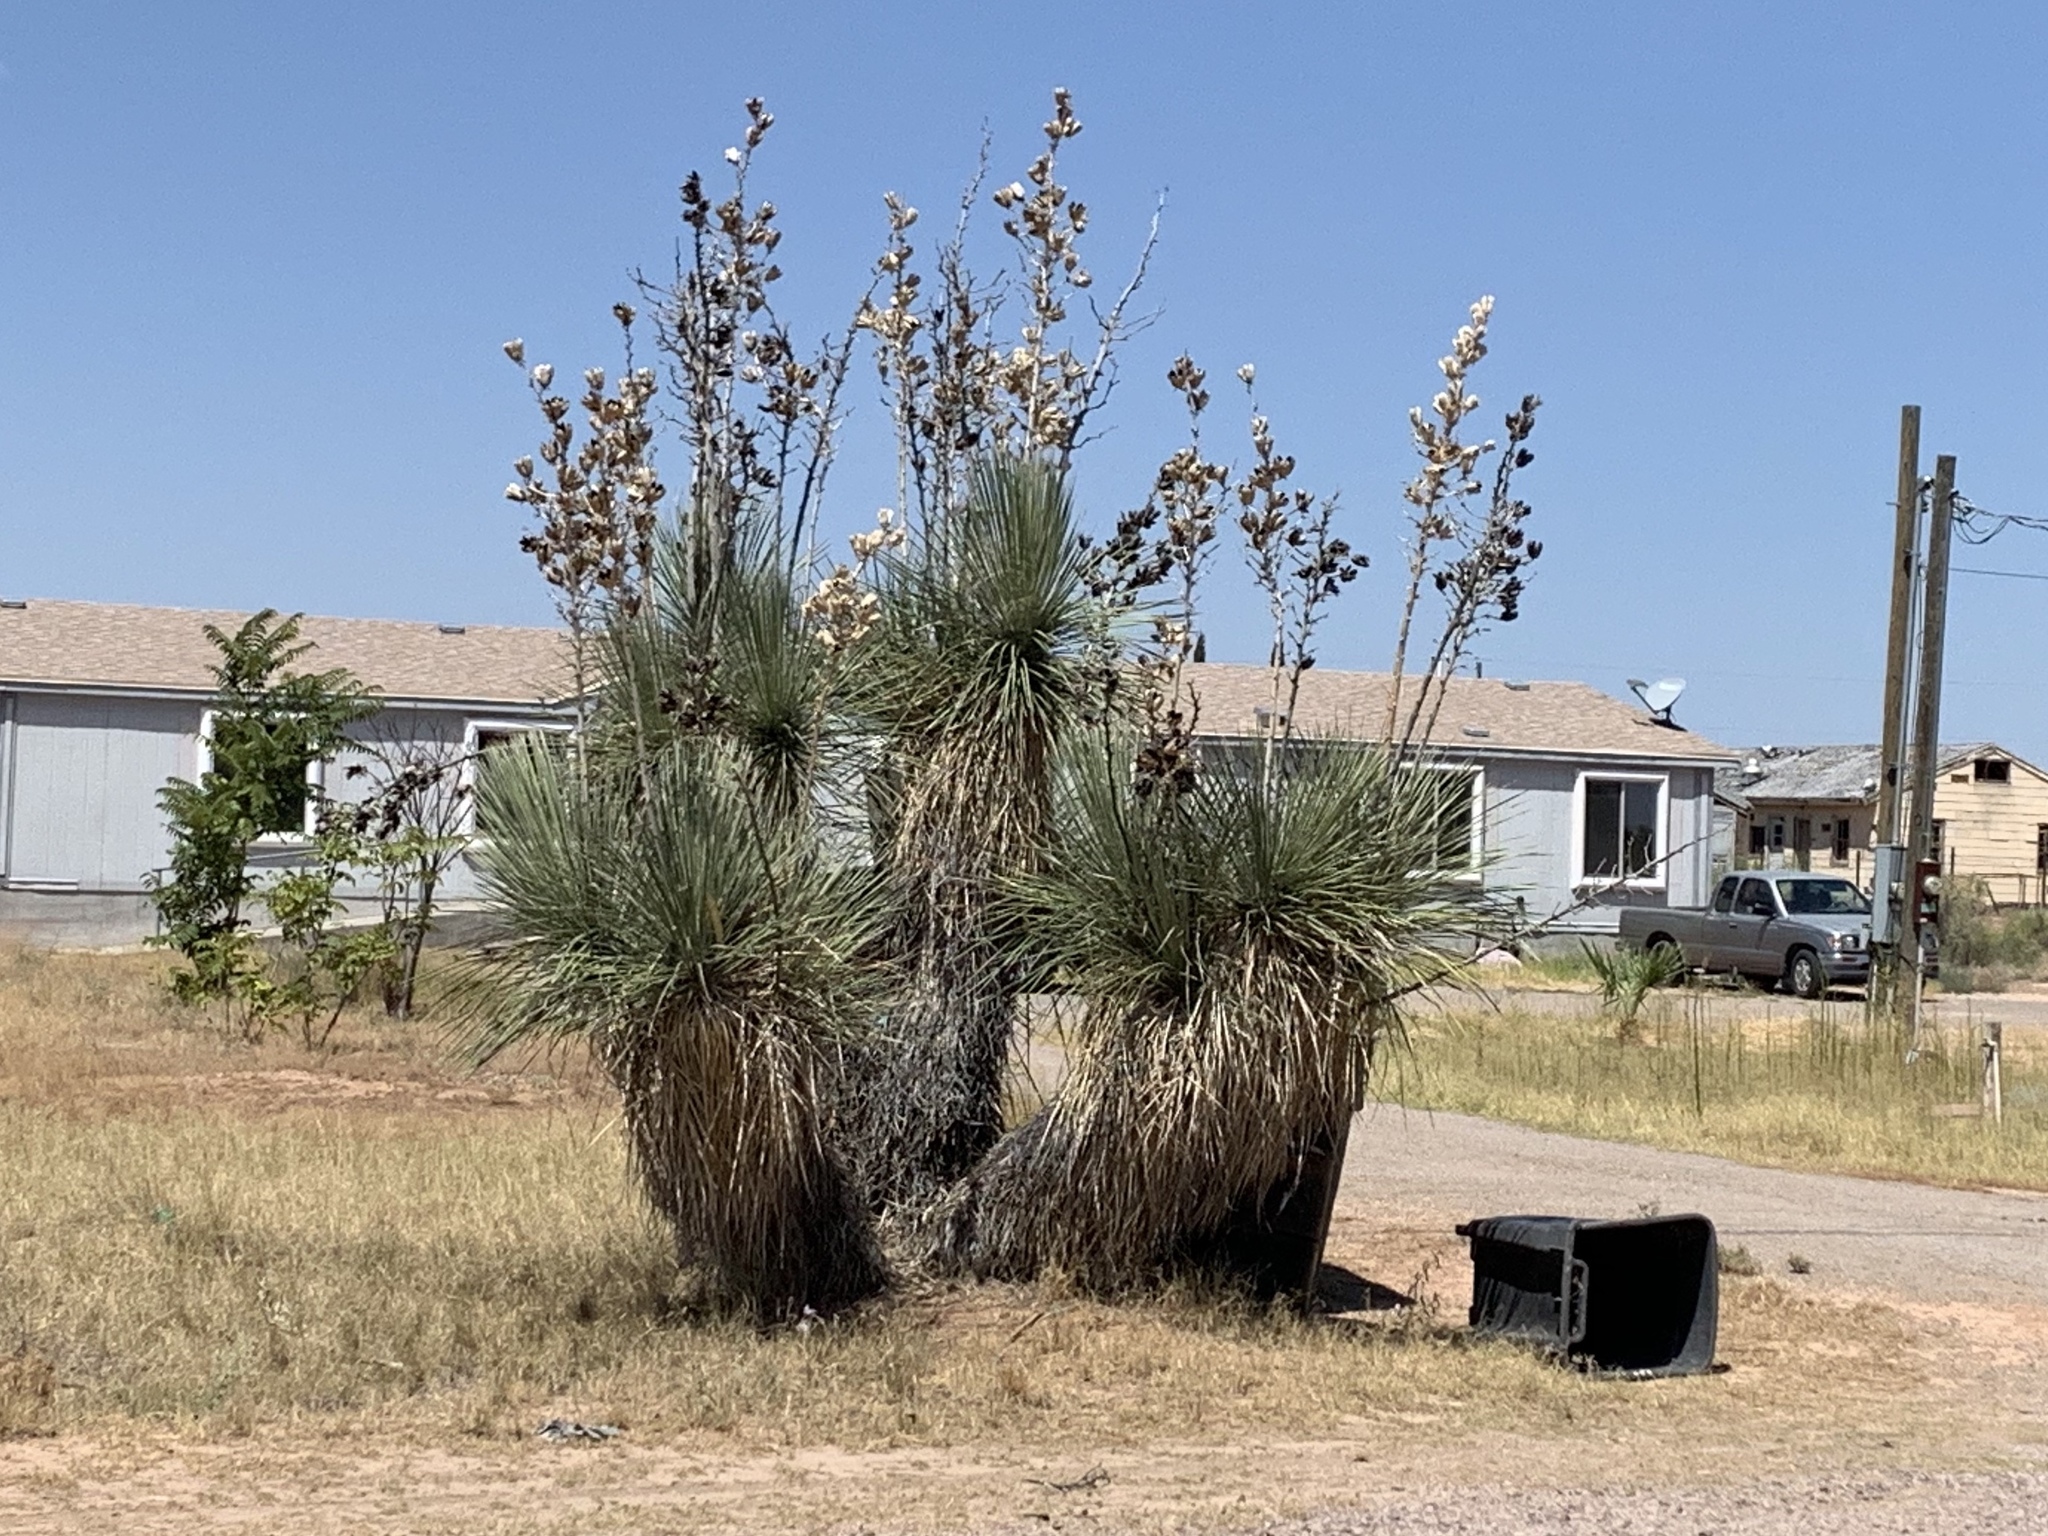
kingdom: Plantae
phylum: Tracheophyta
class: Liliopsida
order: Asparagales
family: Asparagaceae
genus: Yucca
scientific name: Yucca elata
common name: Palmella
